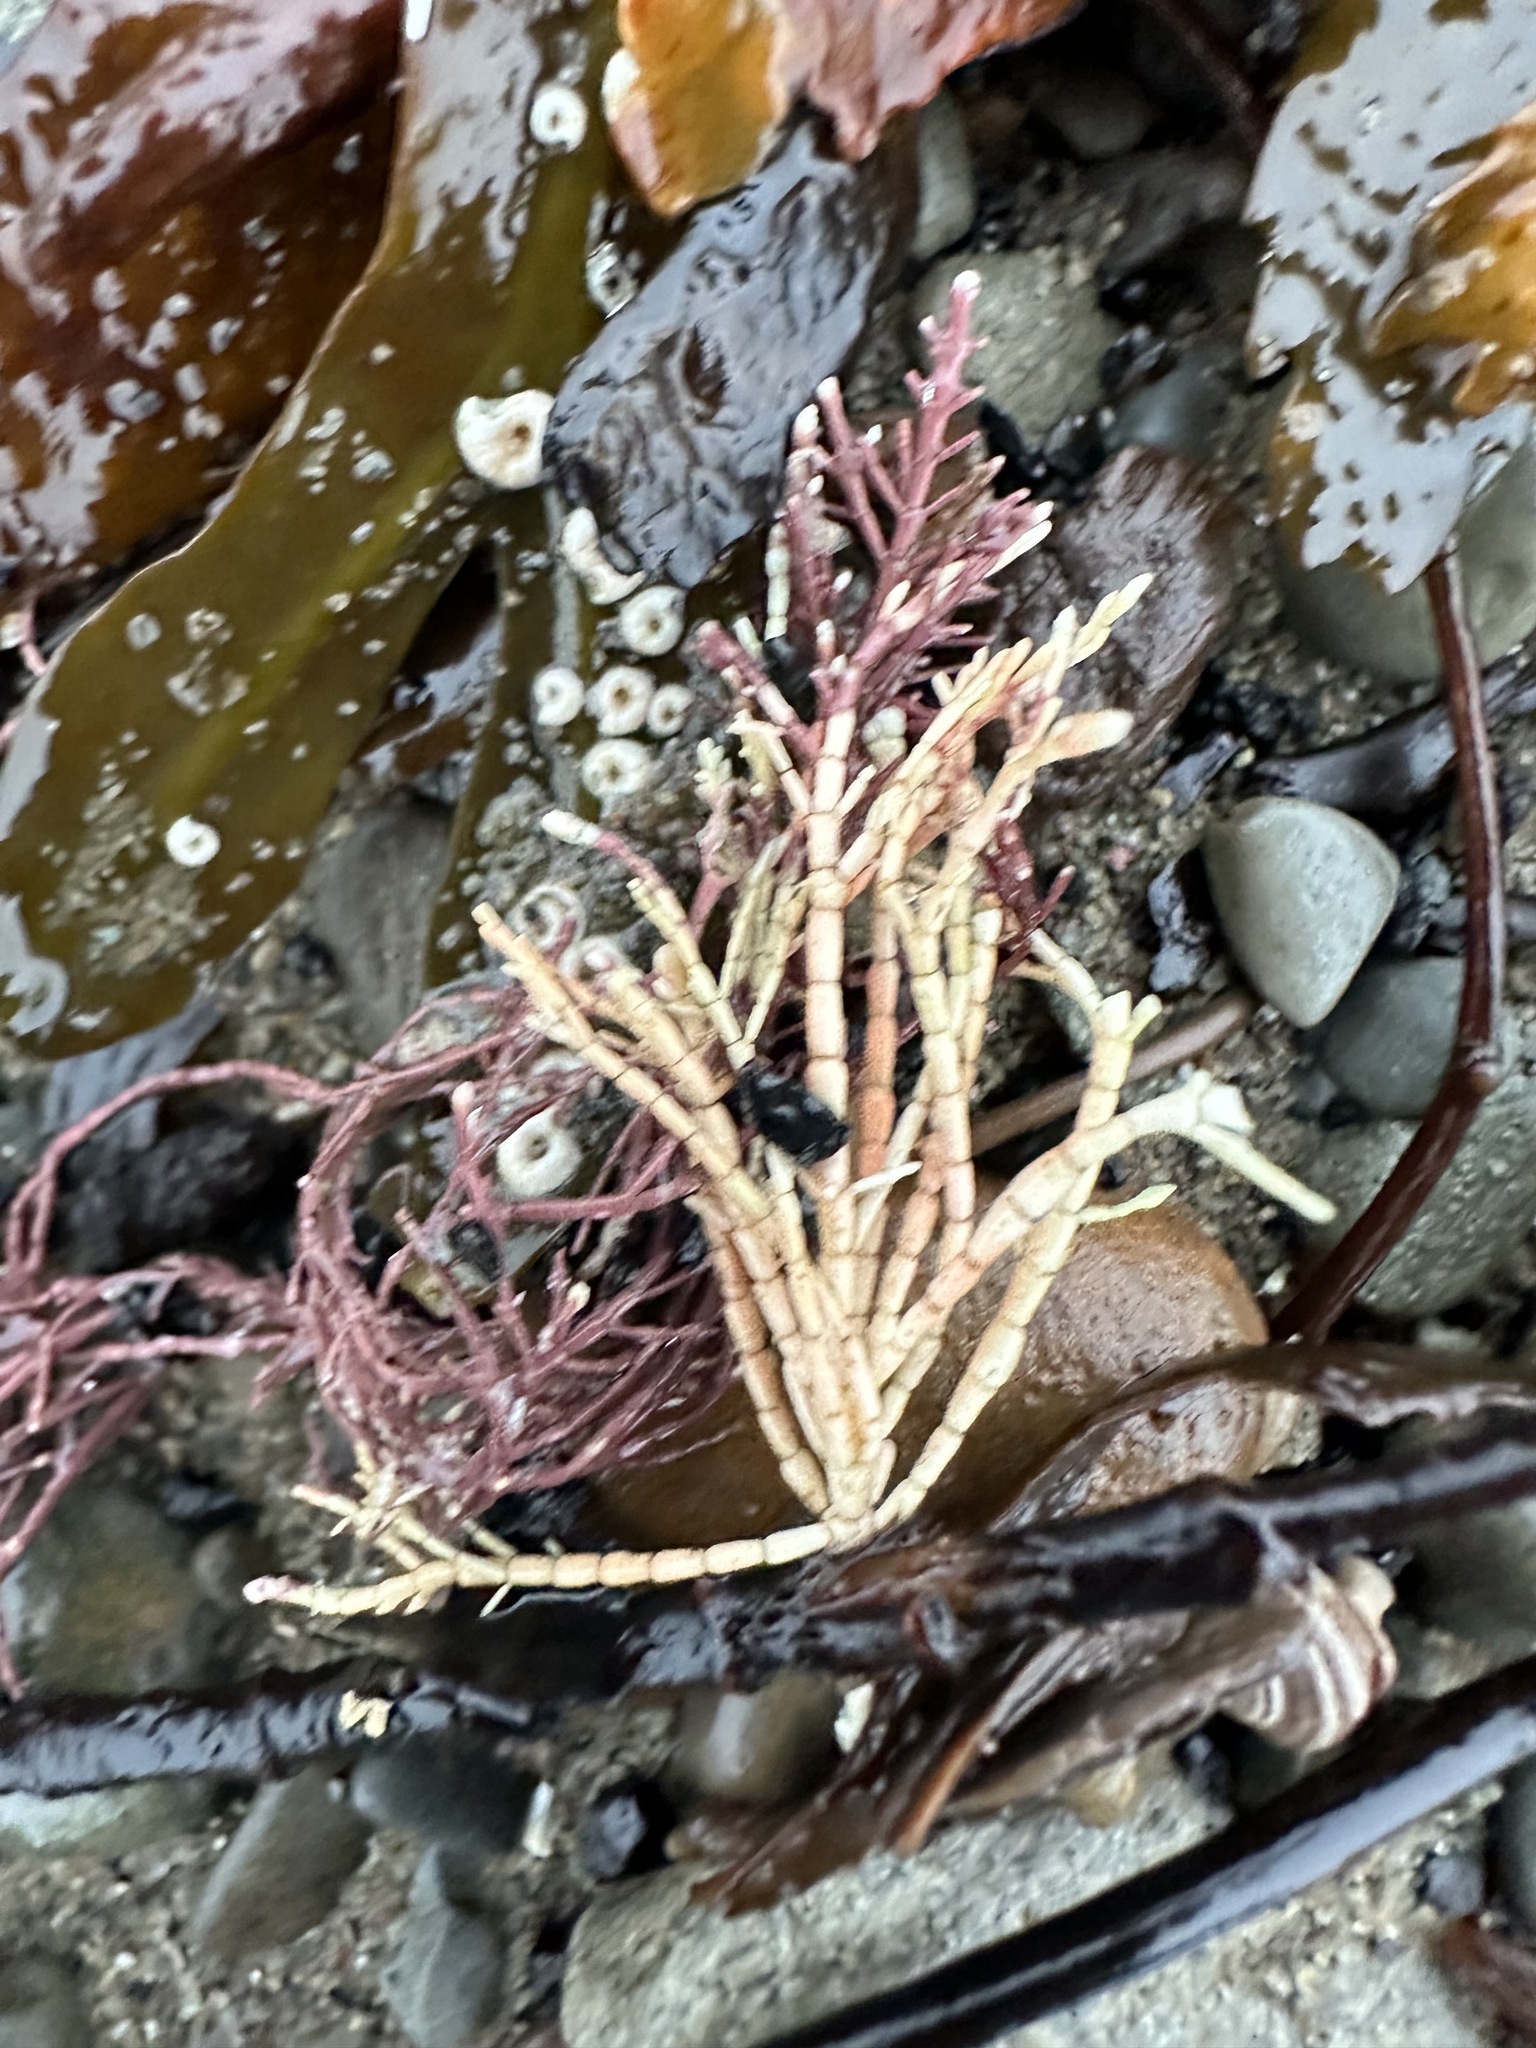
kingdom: Plantae
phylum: Rhodophyta
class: Florideophyceae
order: Corallinales
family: Corallinaceae
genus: Corallina
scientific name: Corallina officinalis
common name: Coral weed
